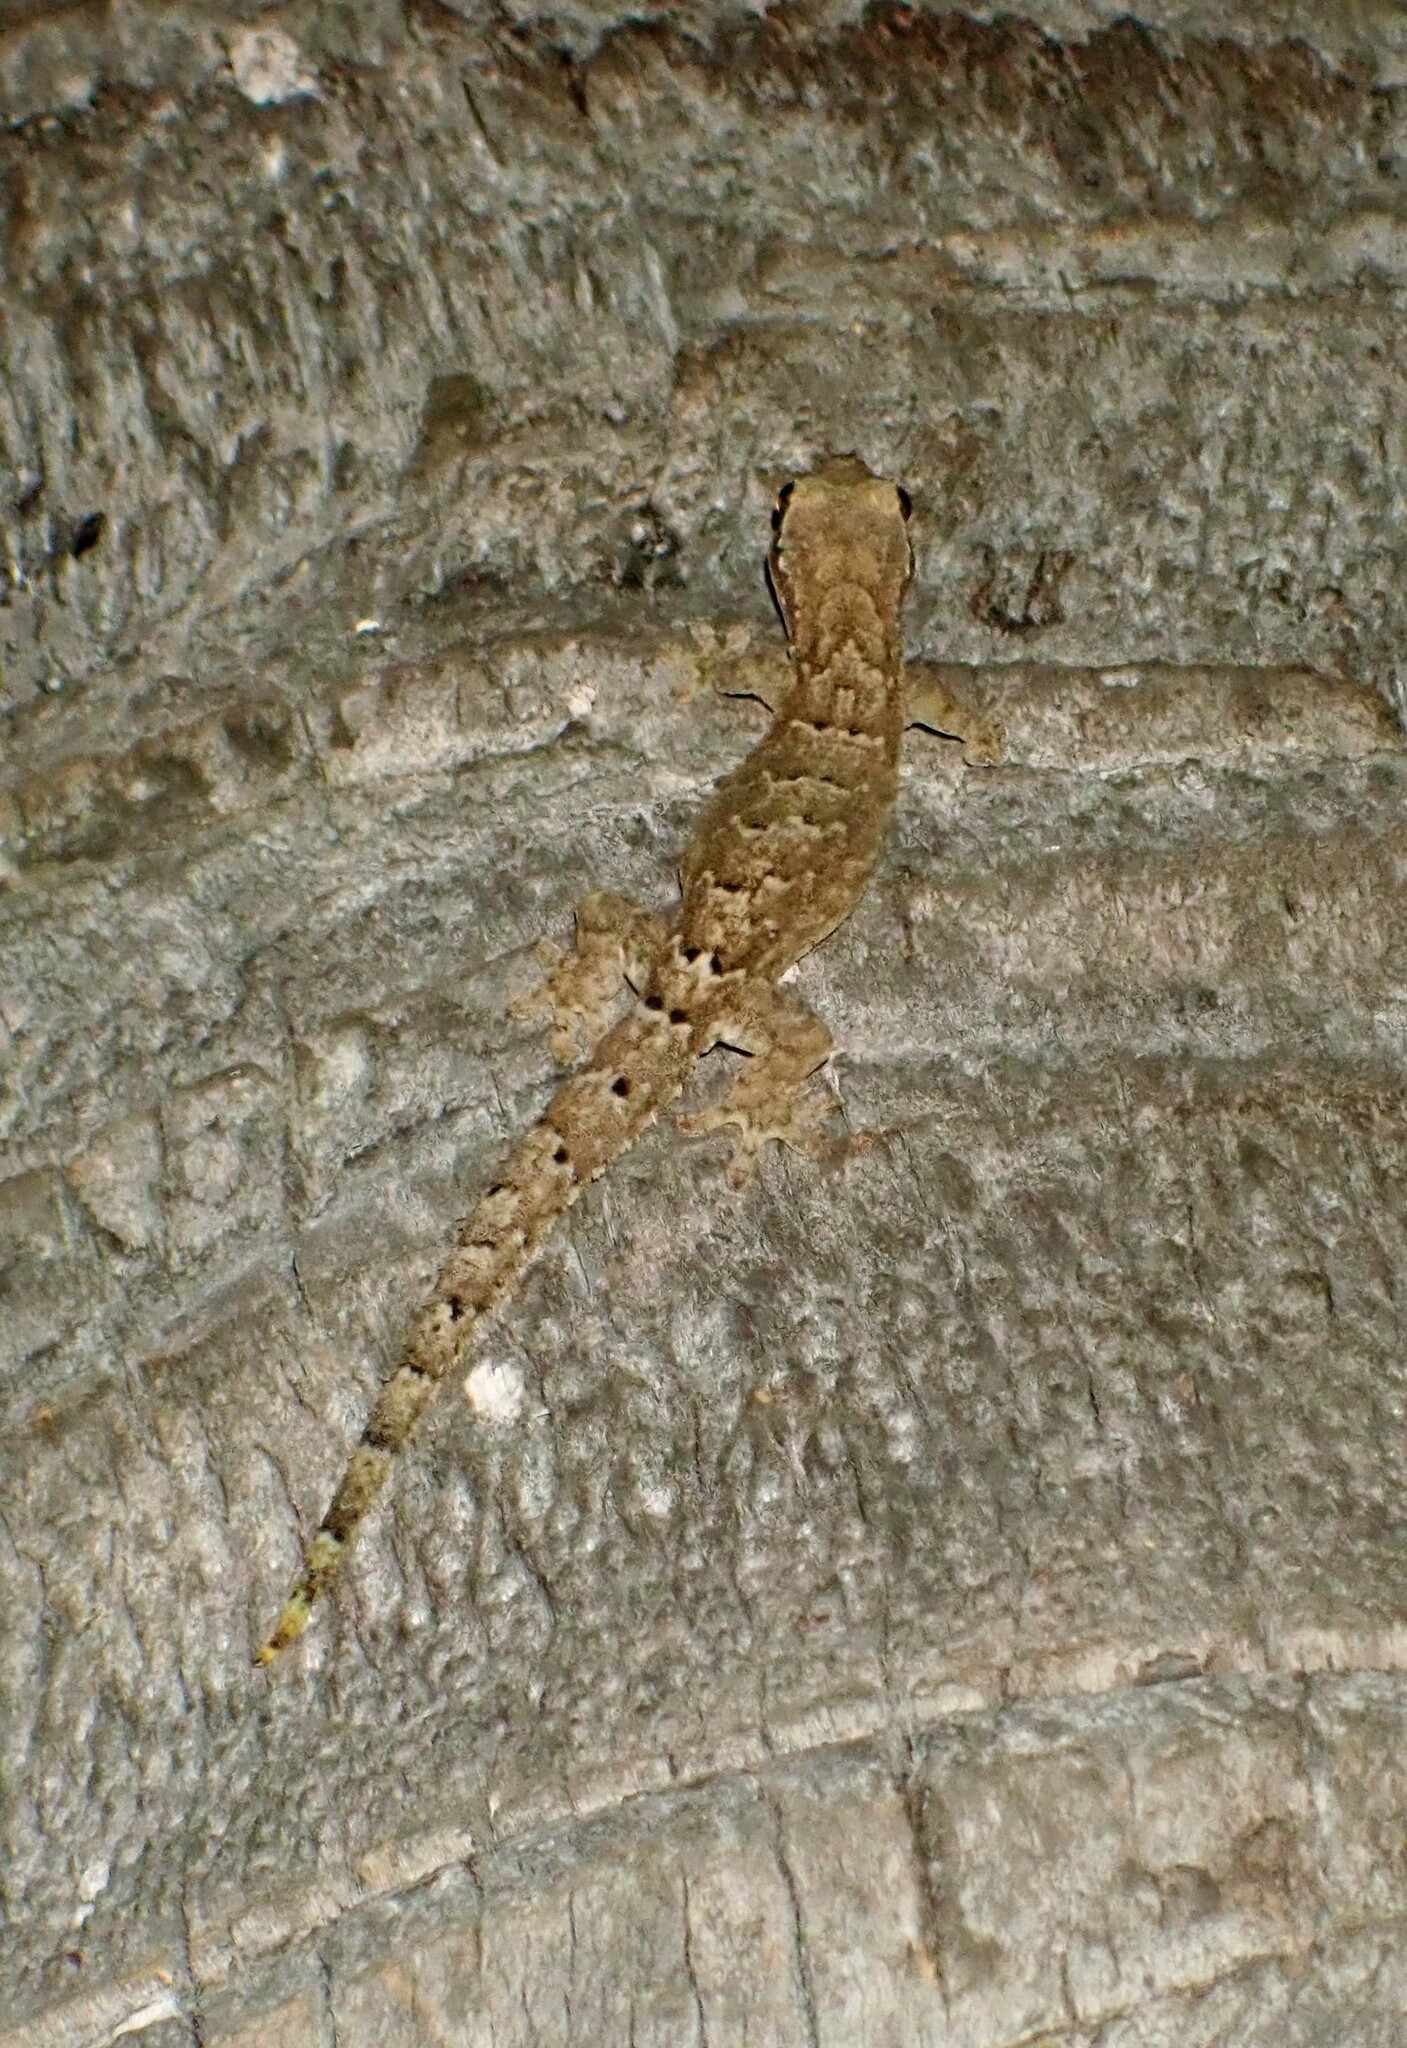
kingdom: Animalia
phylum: Chordata
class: Squamata
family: Gekkonidae
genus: Lepidodactylus
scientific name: Lepidodactylus lugubris
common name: Mourning gecko
